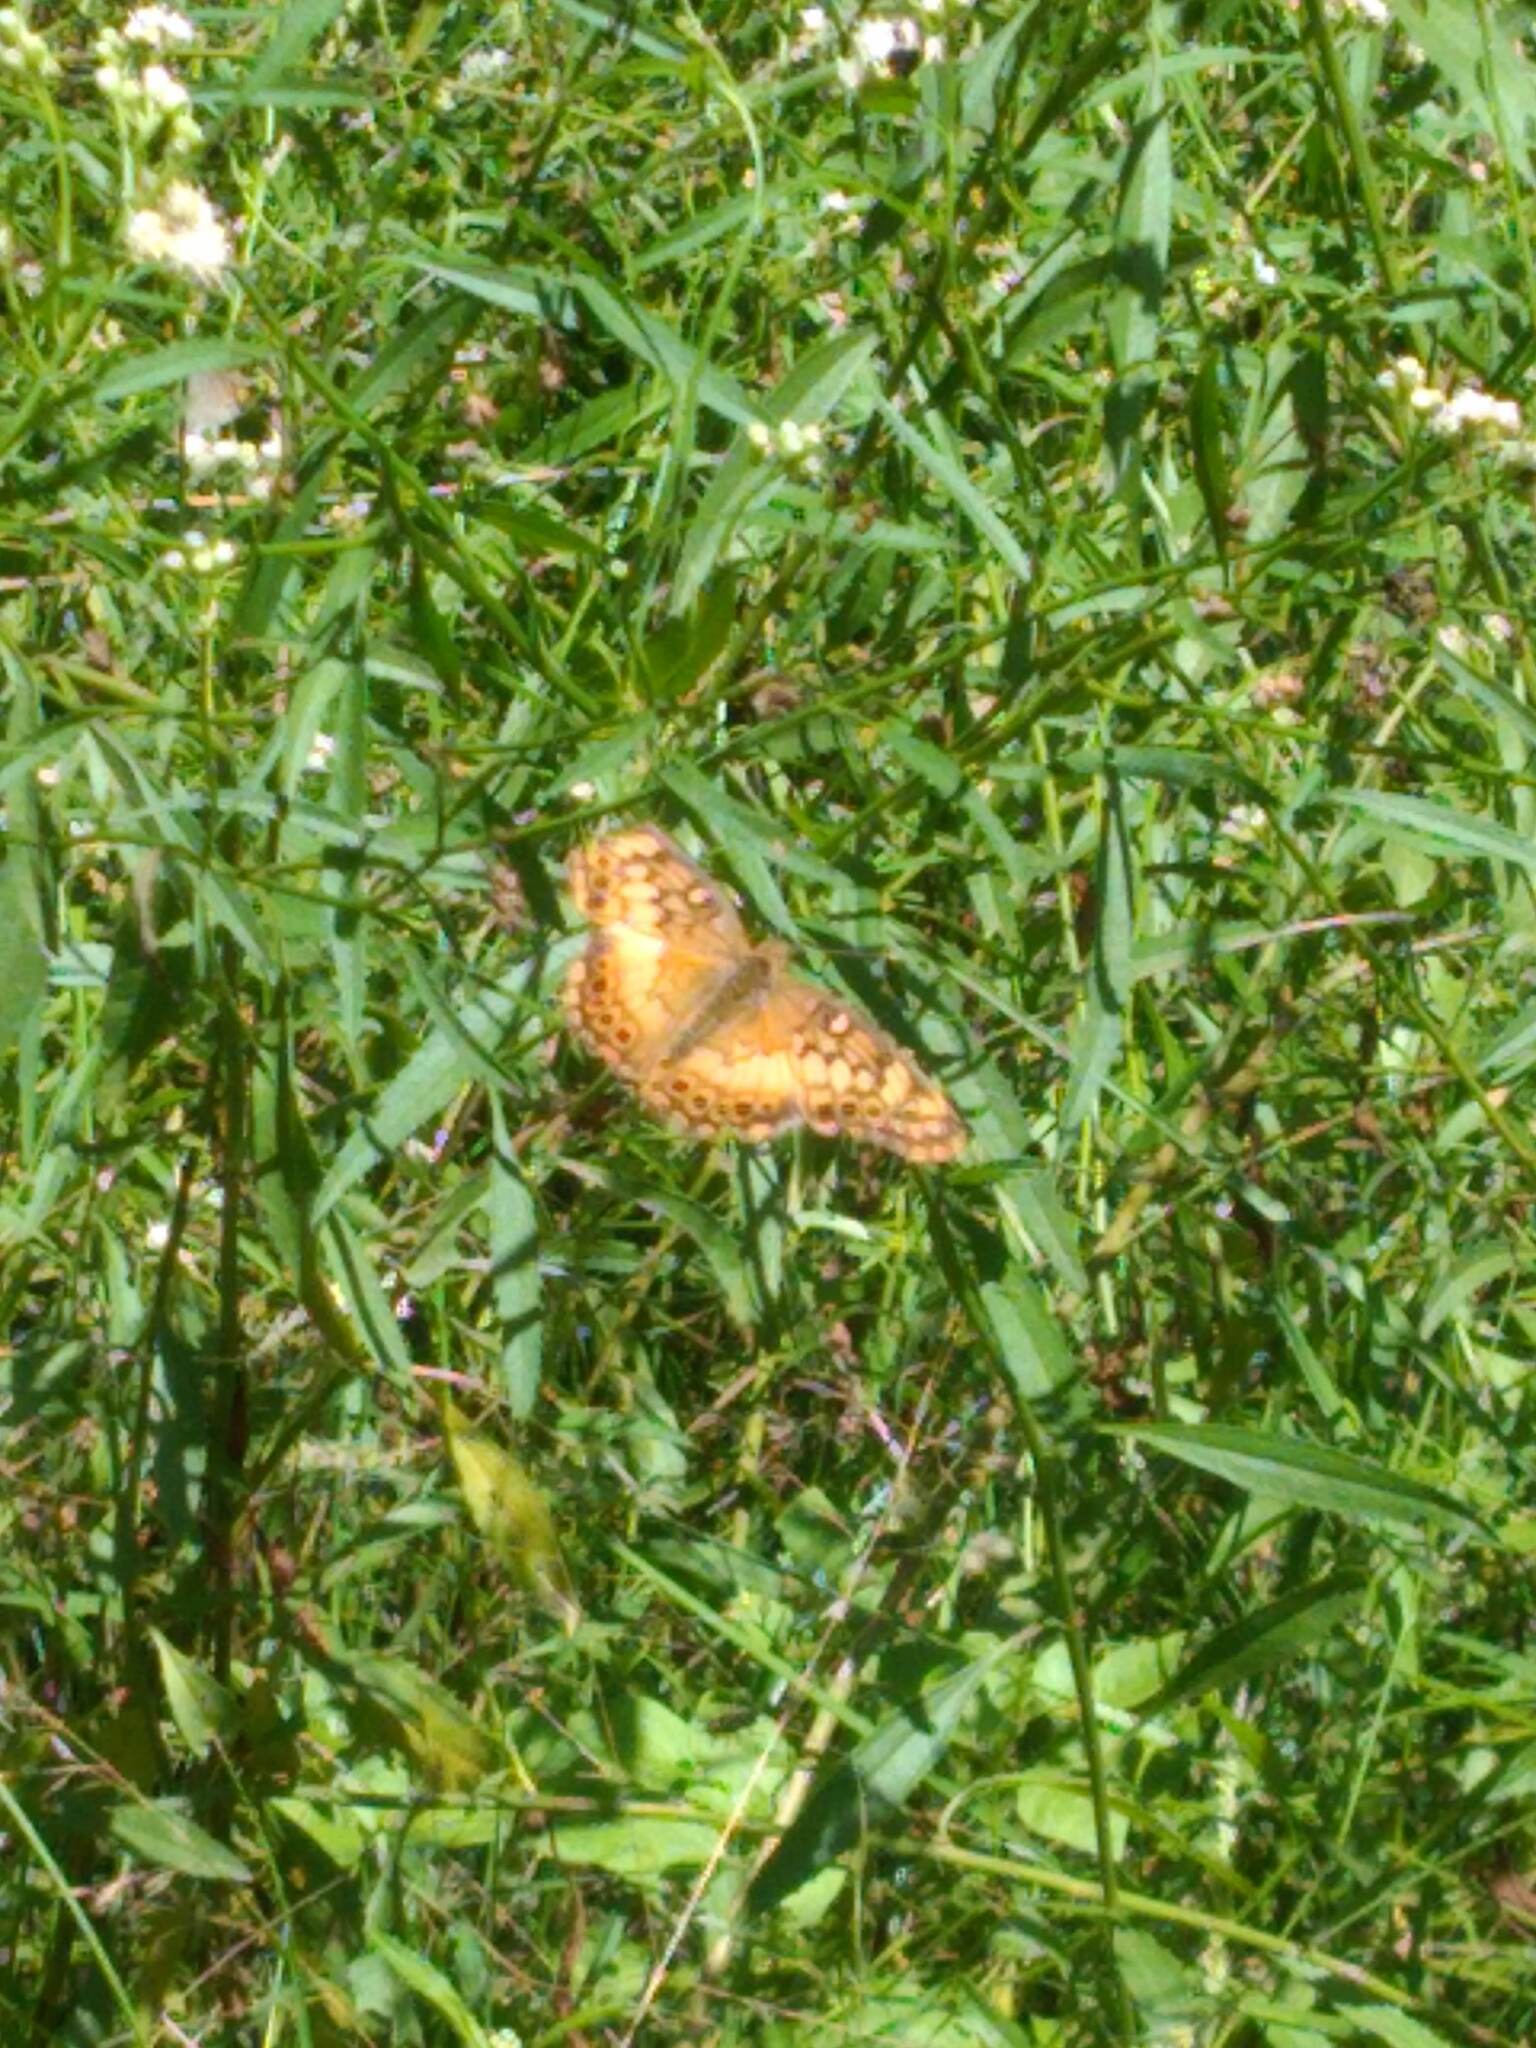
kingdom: Animalia
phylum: Arthropoda
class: Insecta
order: Lepidoptera
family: Nymphalidae
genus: Euptoieta
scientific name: Euptoieta hortensia
